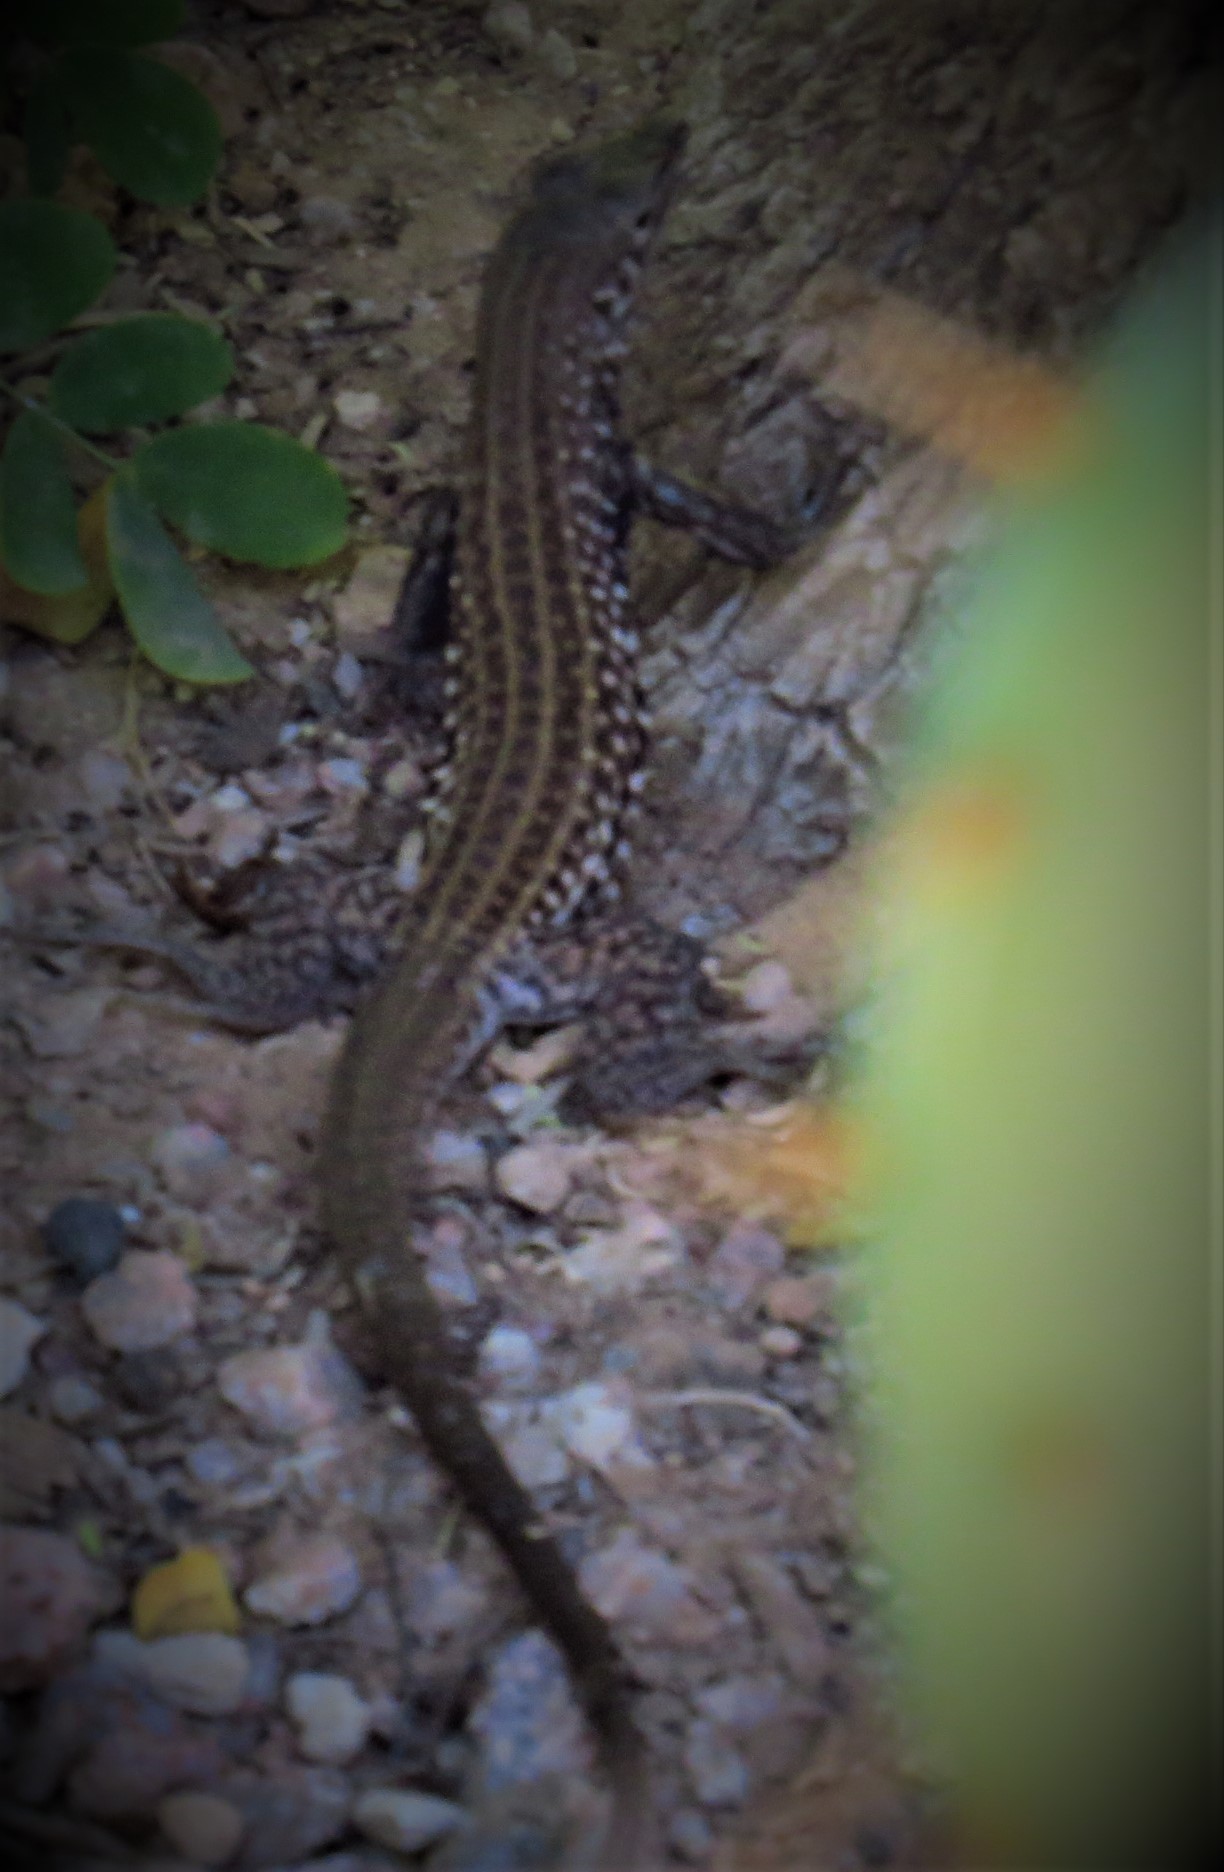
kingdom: Animalia
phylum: Chordata
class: Squamata
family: Teiidae
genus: Aspidoscelis
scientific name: Aspidoscelis tigris
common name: Tiger whiptail
